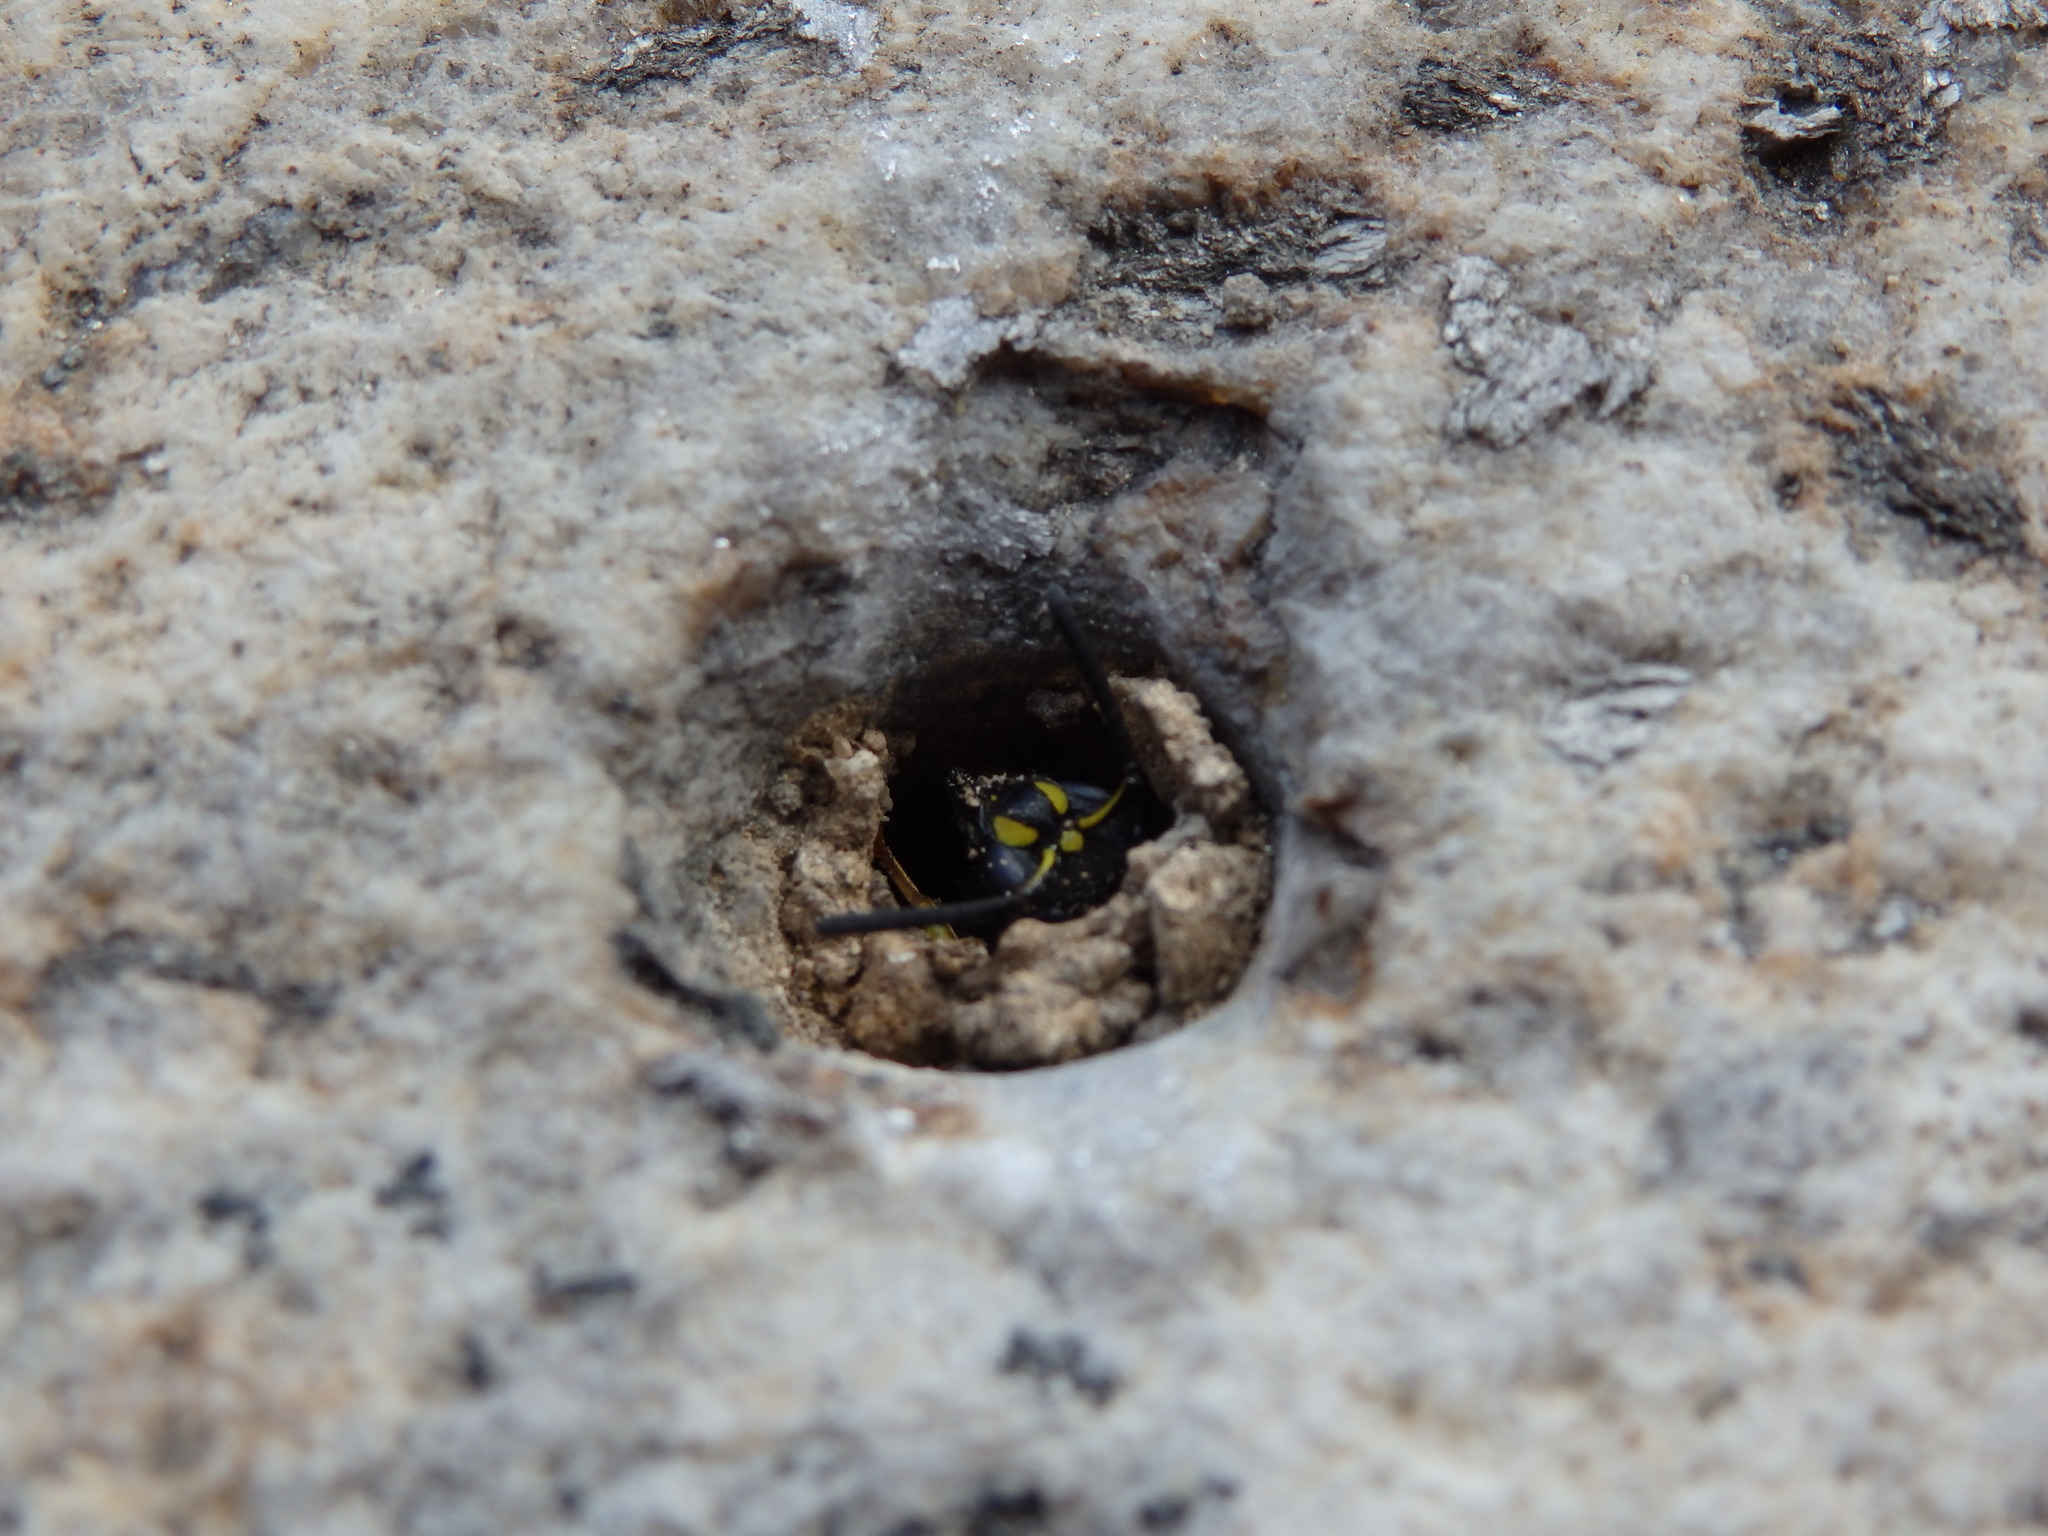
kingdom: Animalia
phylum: Arthropoda
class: Insecta
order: Hymenoptera
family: Vespidae
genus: Ancistrocerus
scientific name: Ancistrocerus gazella
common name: European tube wasp
